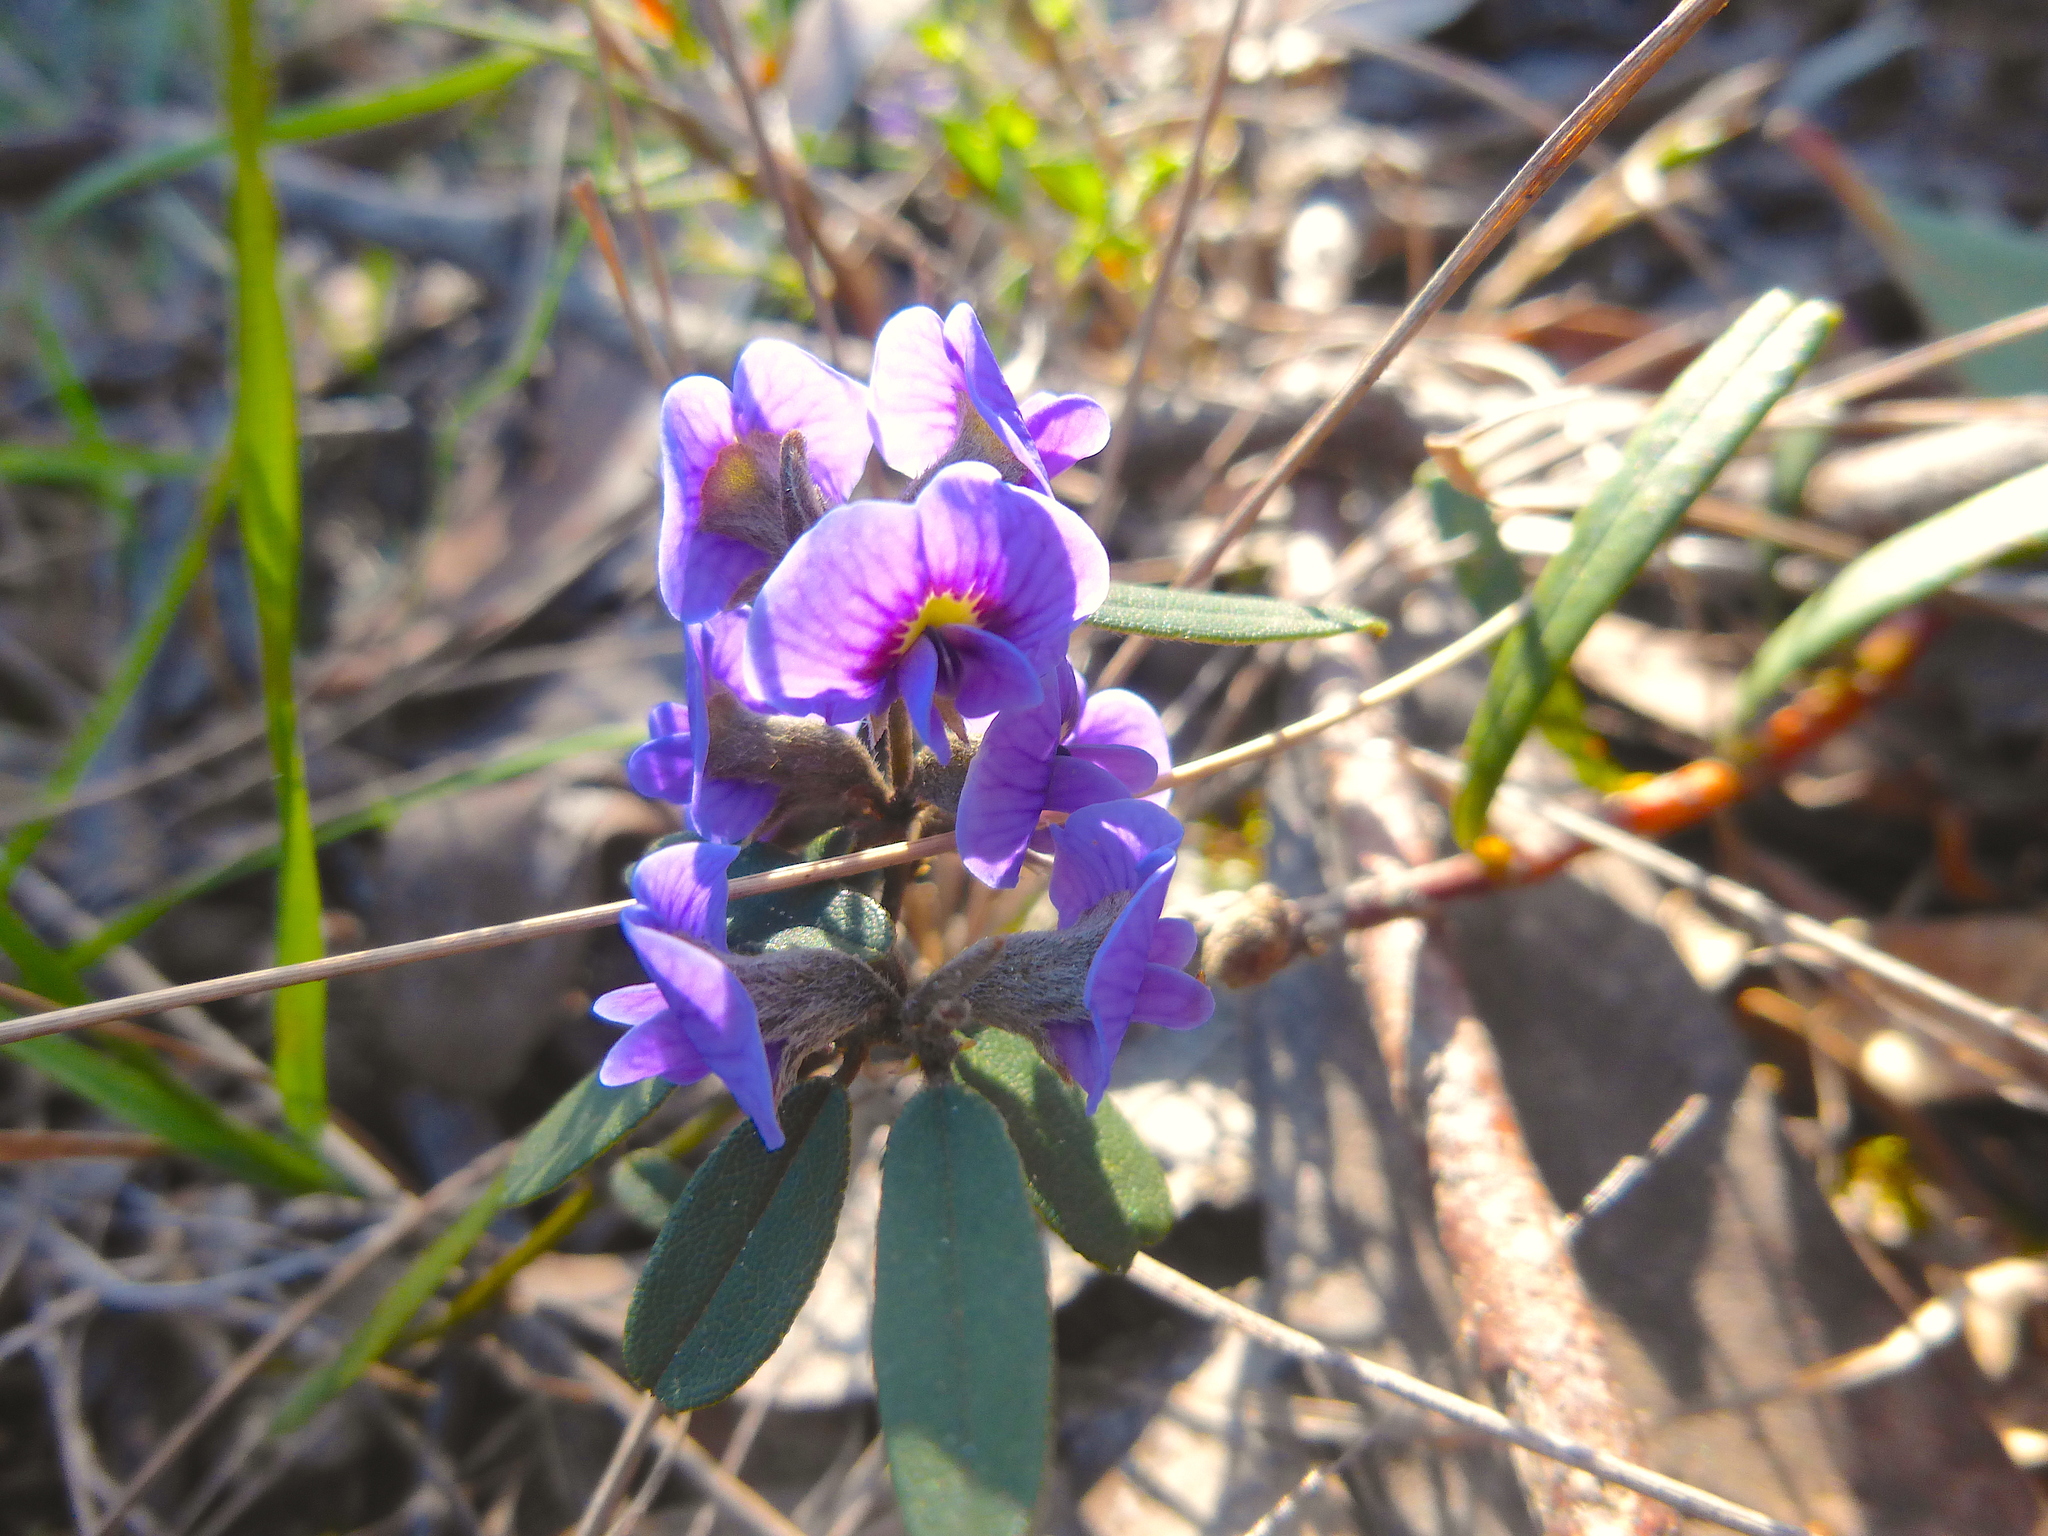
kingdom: Plantae
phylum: Tracheophyta
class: Magnoliopsida
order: Fabales
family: Fabaceae
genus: Hovea
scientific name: Hovea heterophylla
